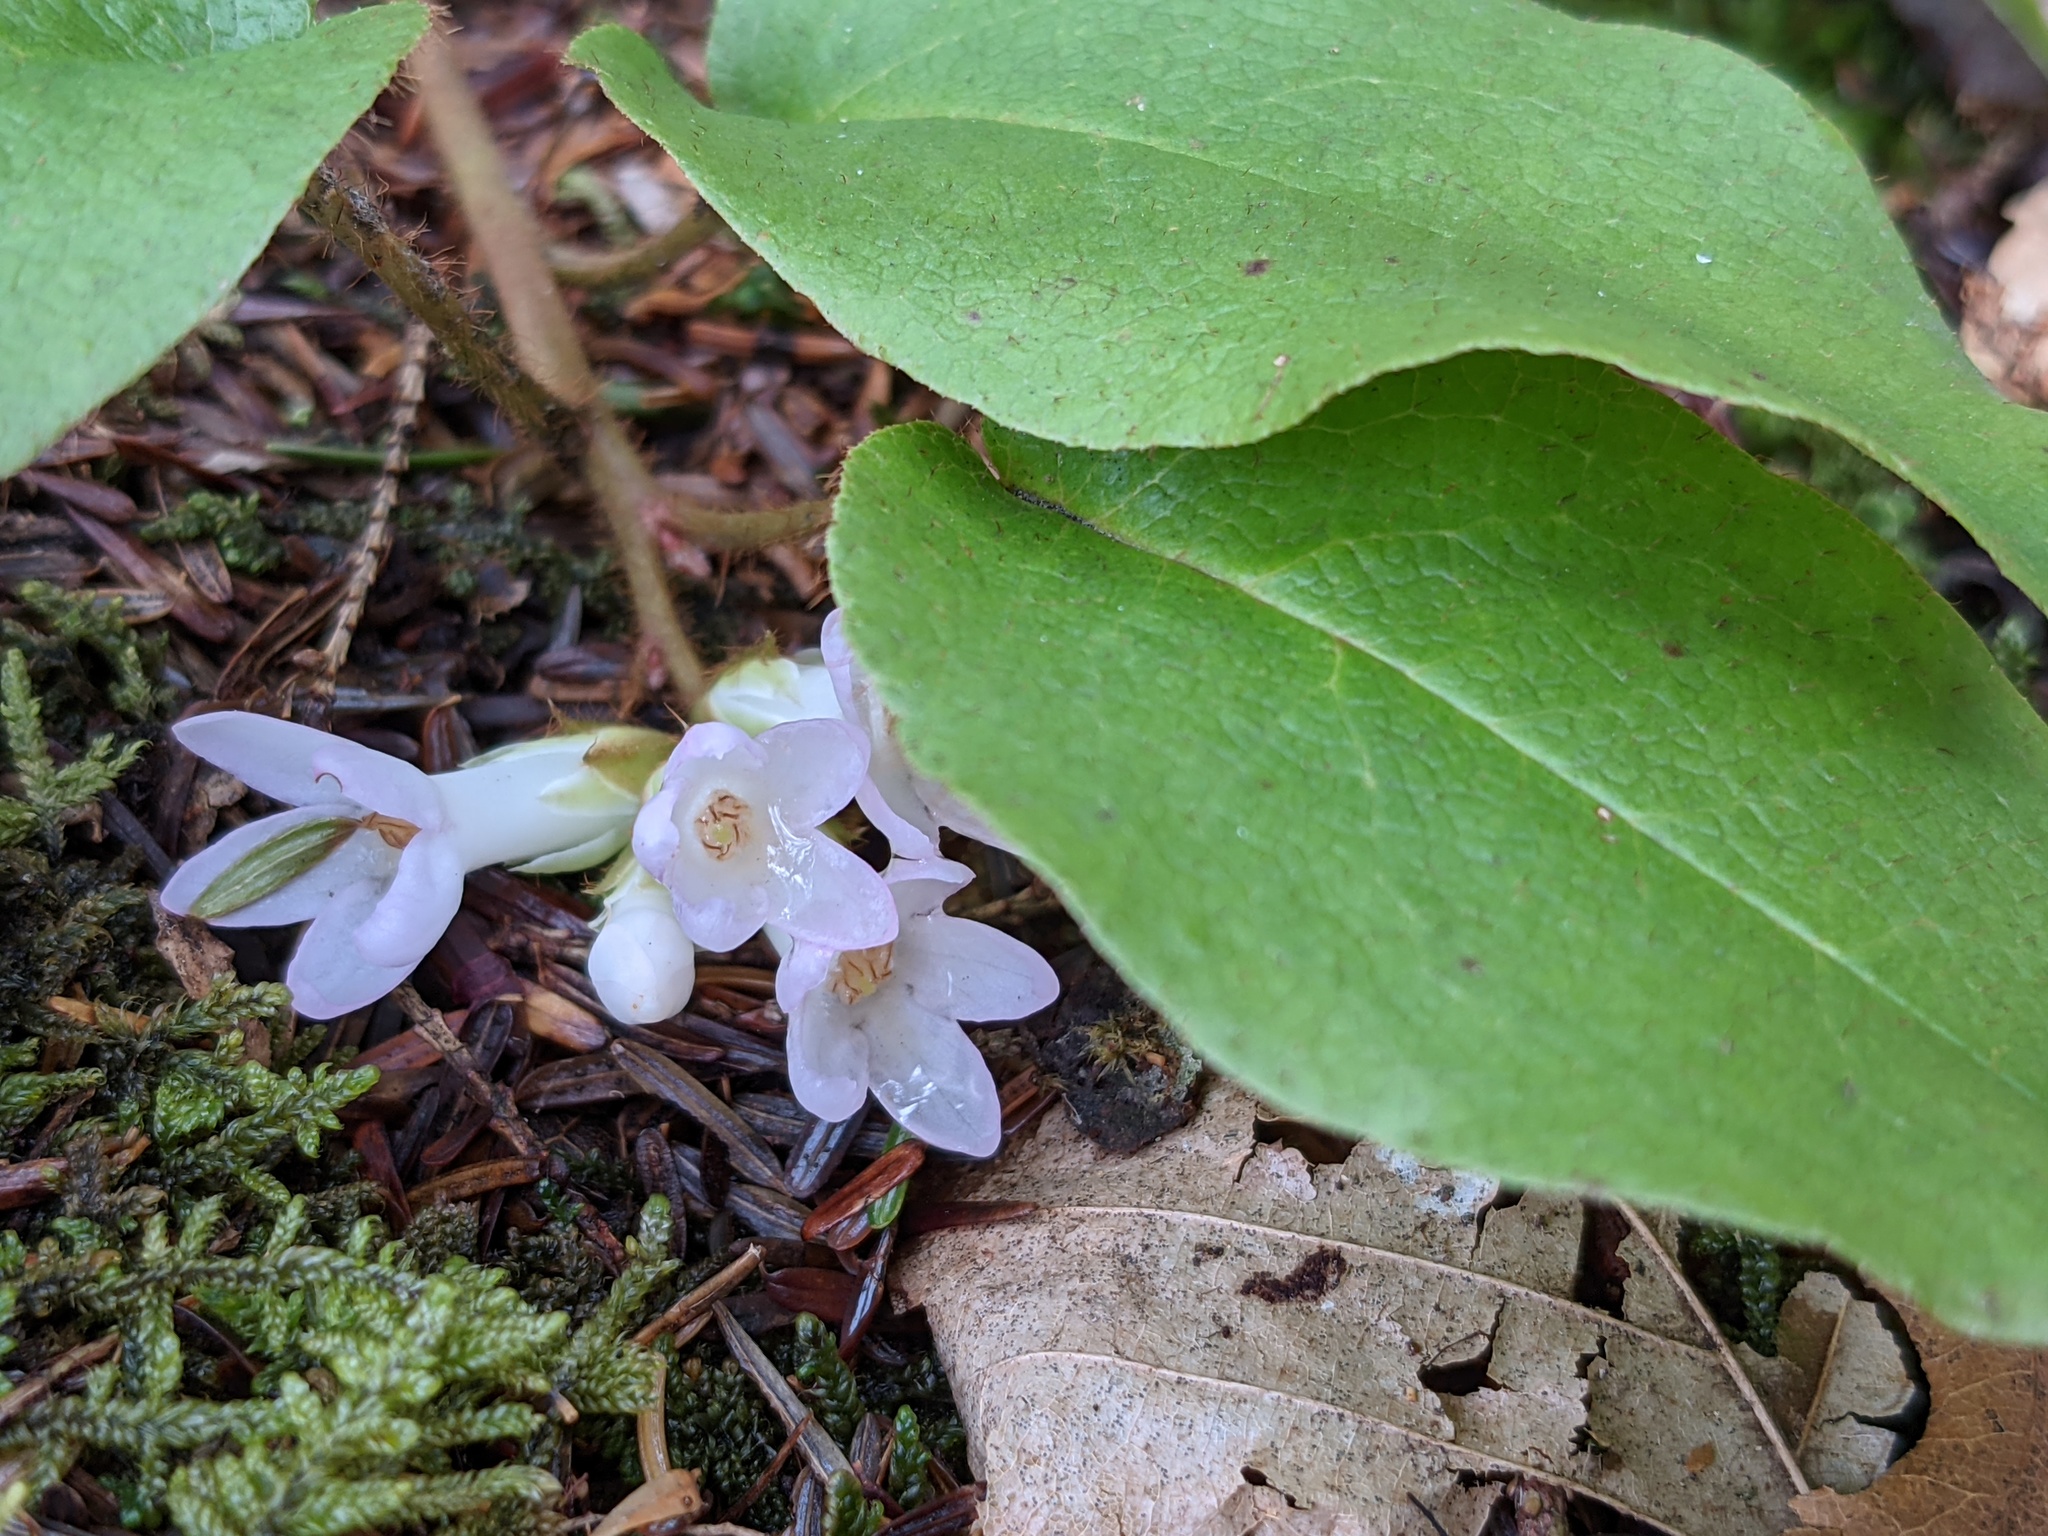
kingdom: Plantae
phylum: Tracheophyta
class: Magnoliopsida
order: Ericales
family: Ericaceae
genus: Epigaea
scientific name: Epigaea repens
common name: Gravelroot
